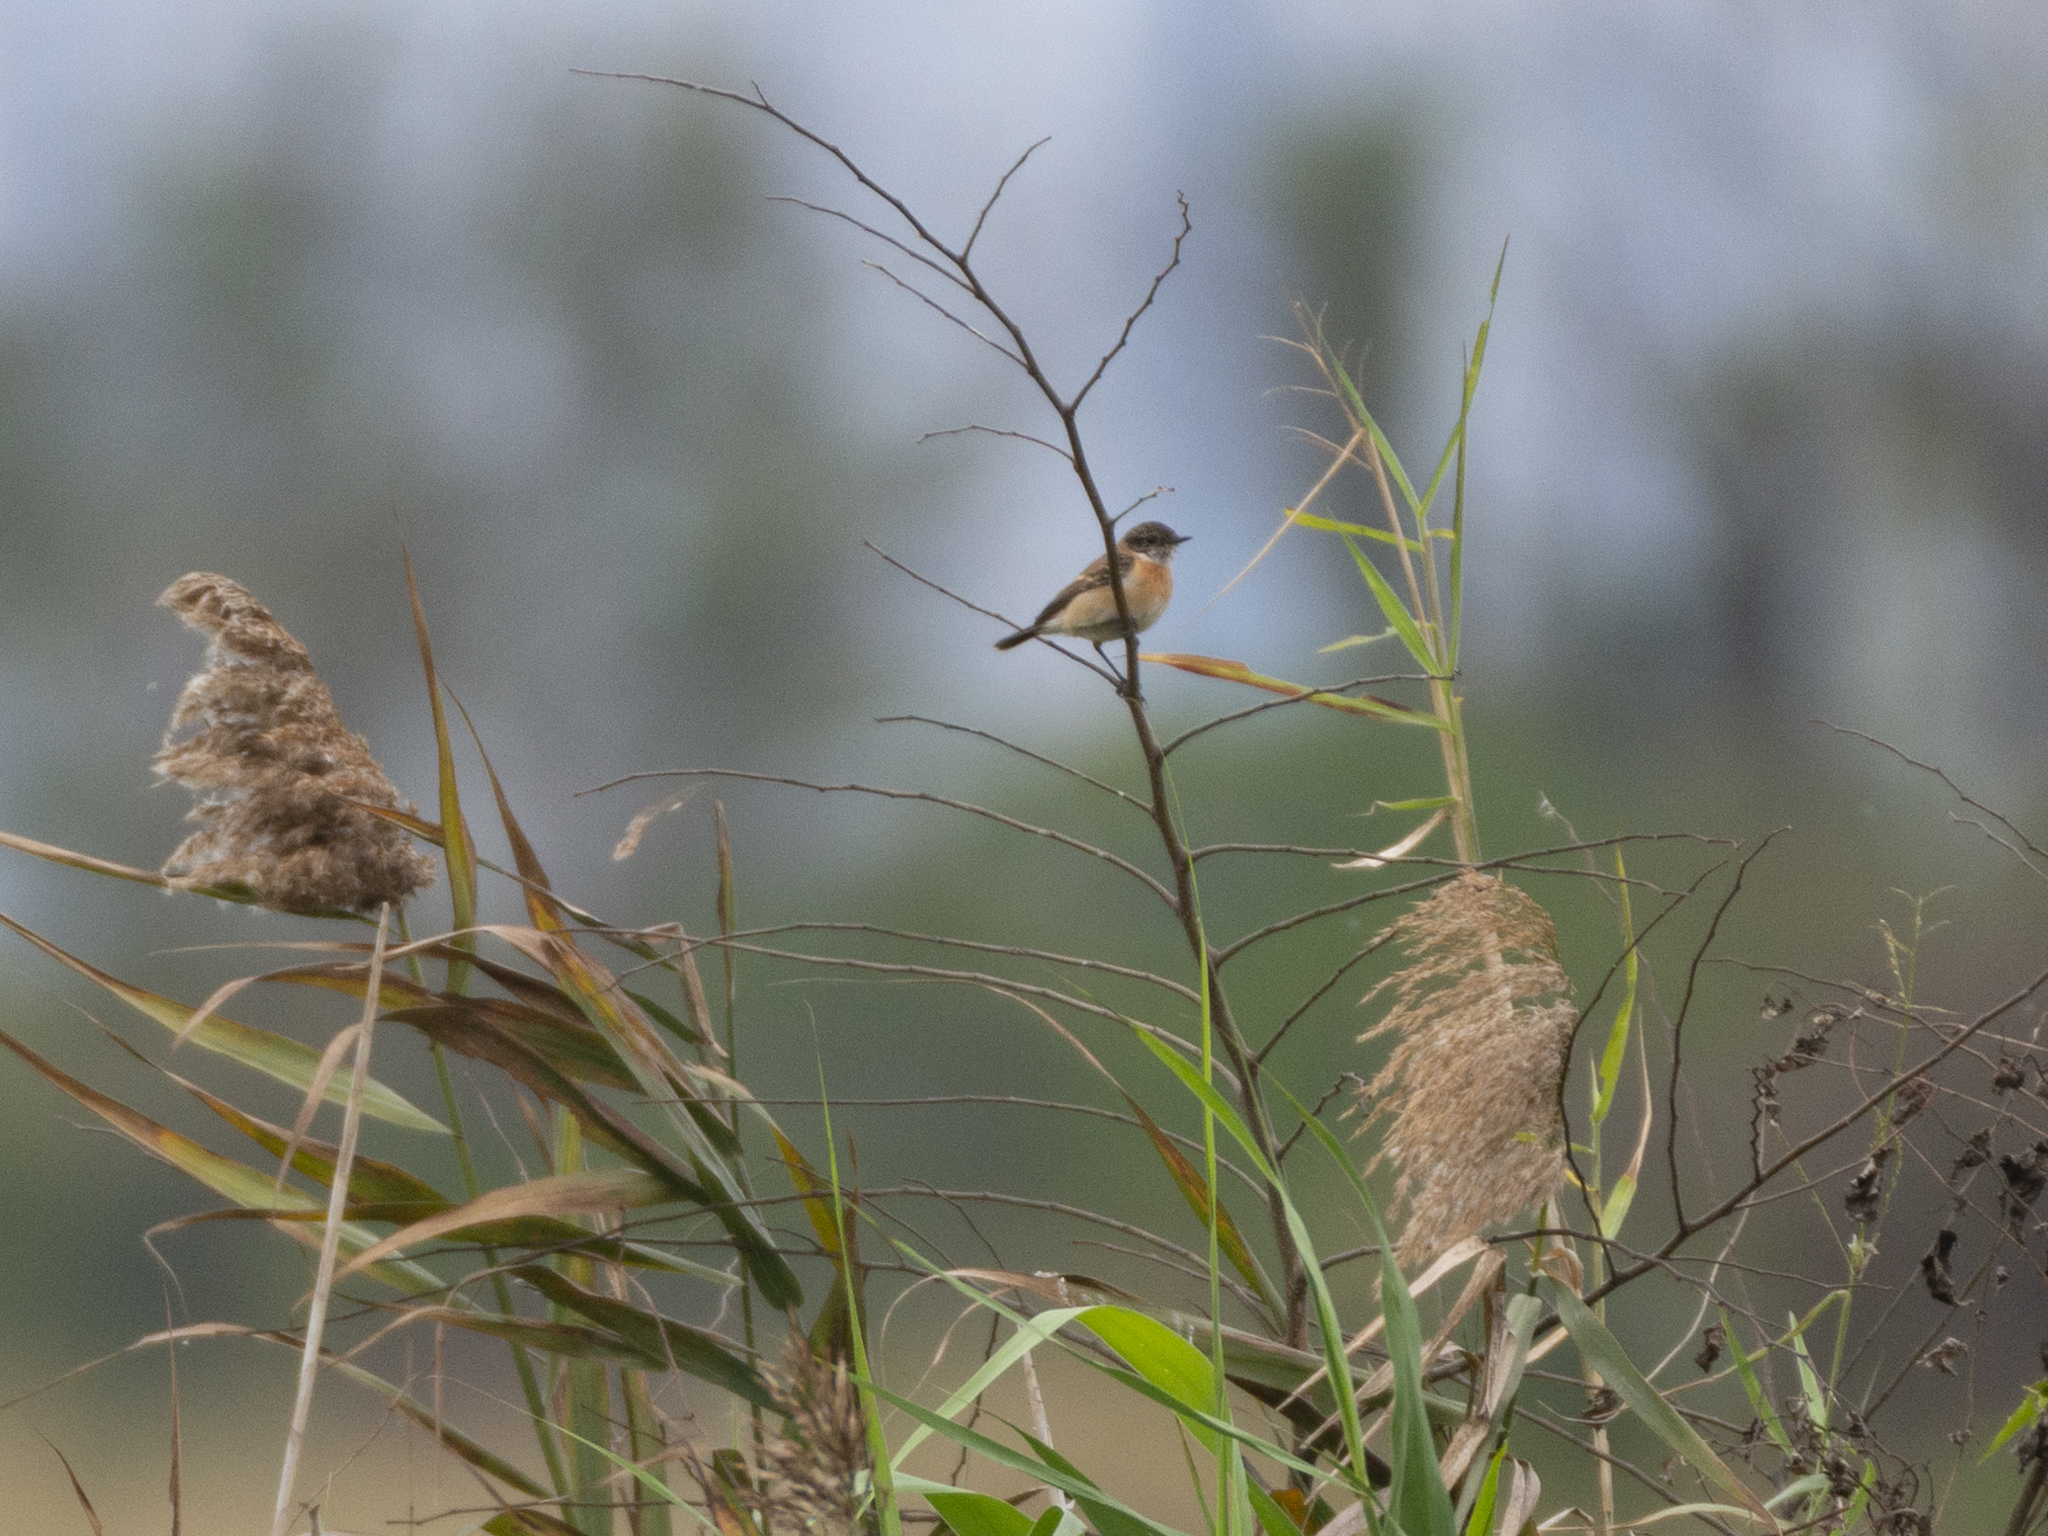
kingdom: Animalia
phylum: Chordata
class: Aves
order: Passeriformes
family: Muscicapidae
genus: Saxicola
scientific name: Saxicola maurus
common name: Siberian stonechat
